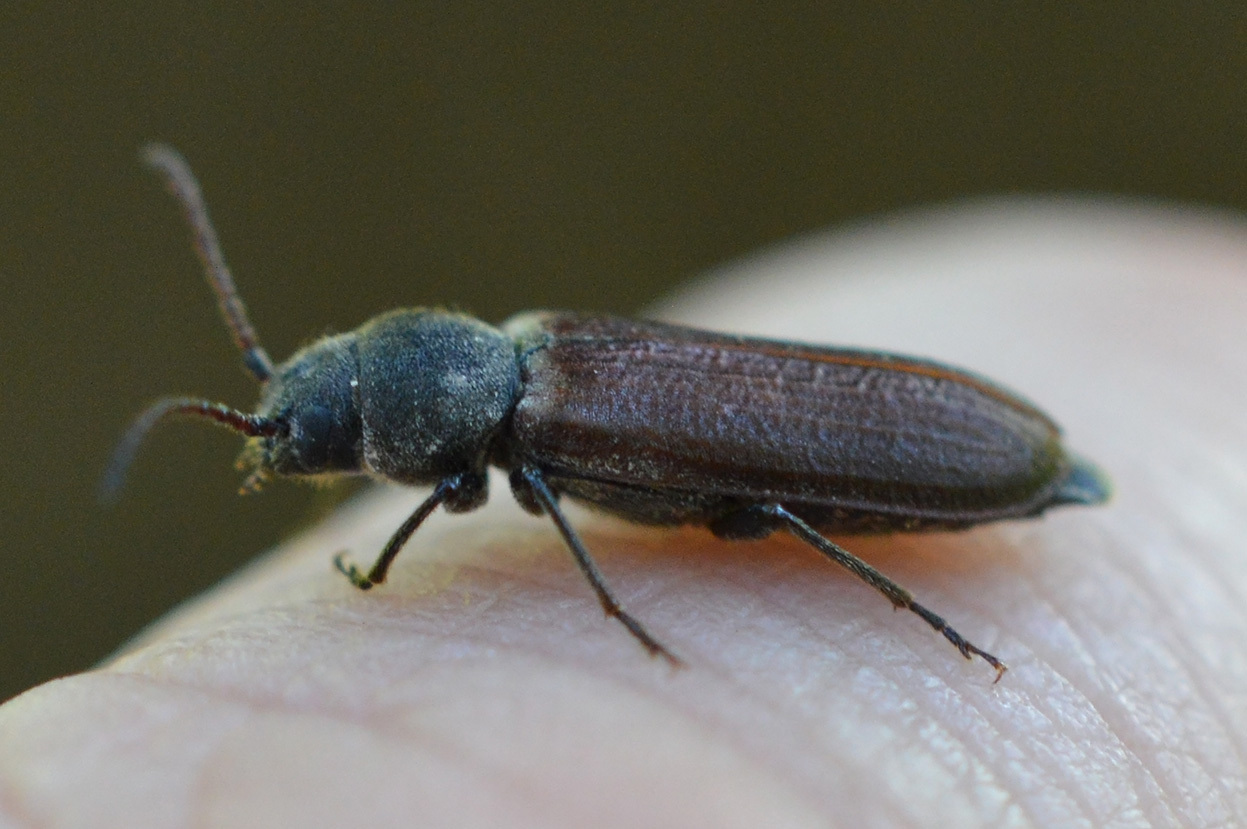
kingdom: Animalia
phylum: Arthropoda
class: Insecta
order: Coleoptera
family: Cerambycidae
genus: Asemum
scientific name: Asemum striatum
